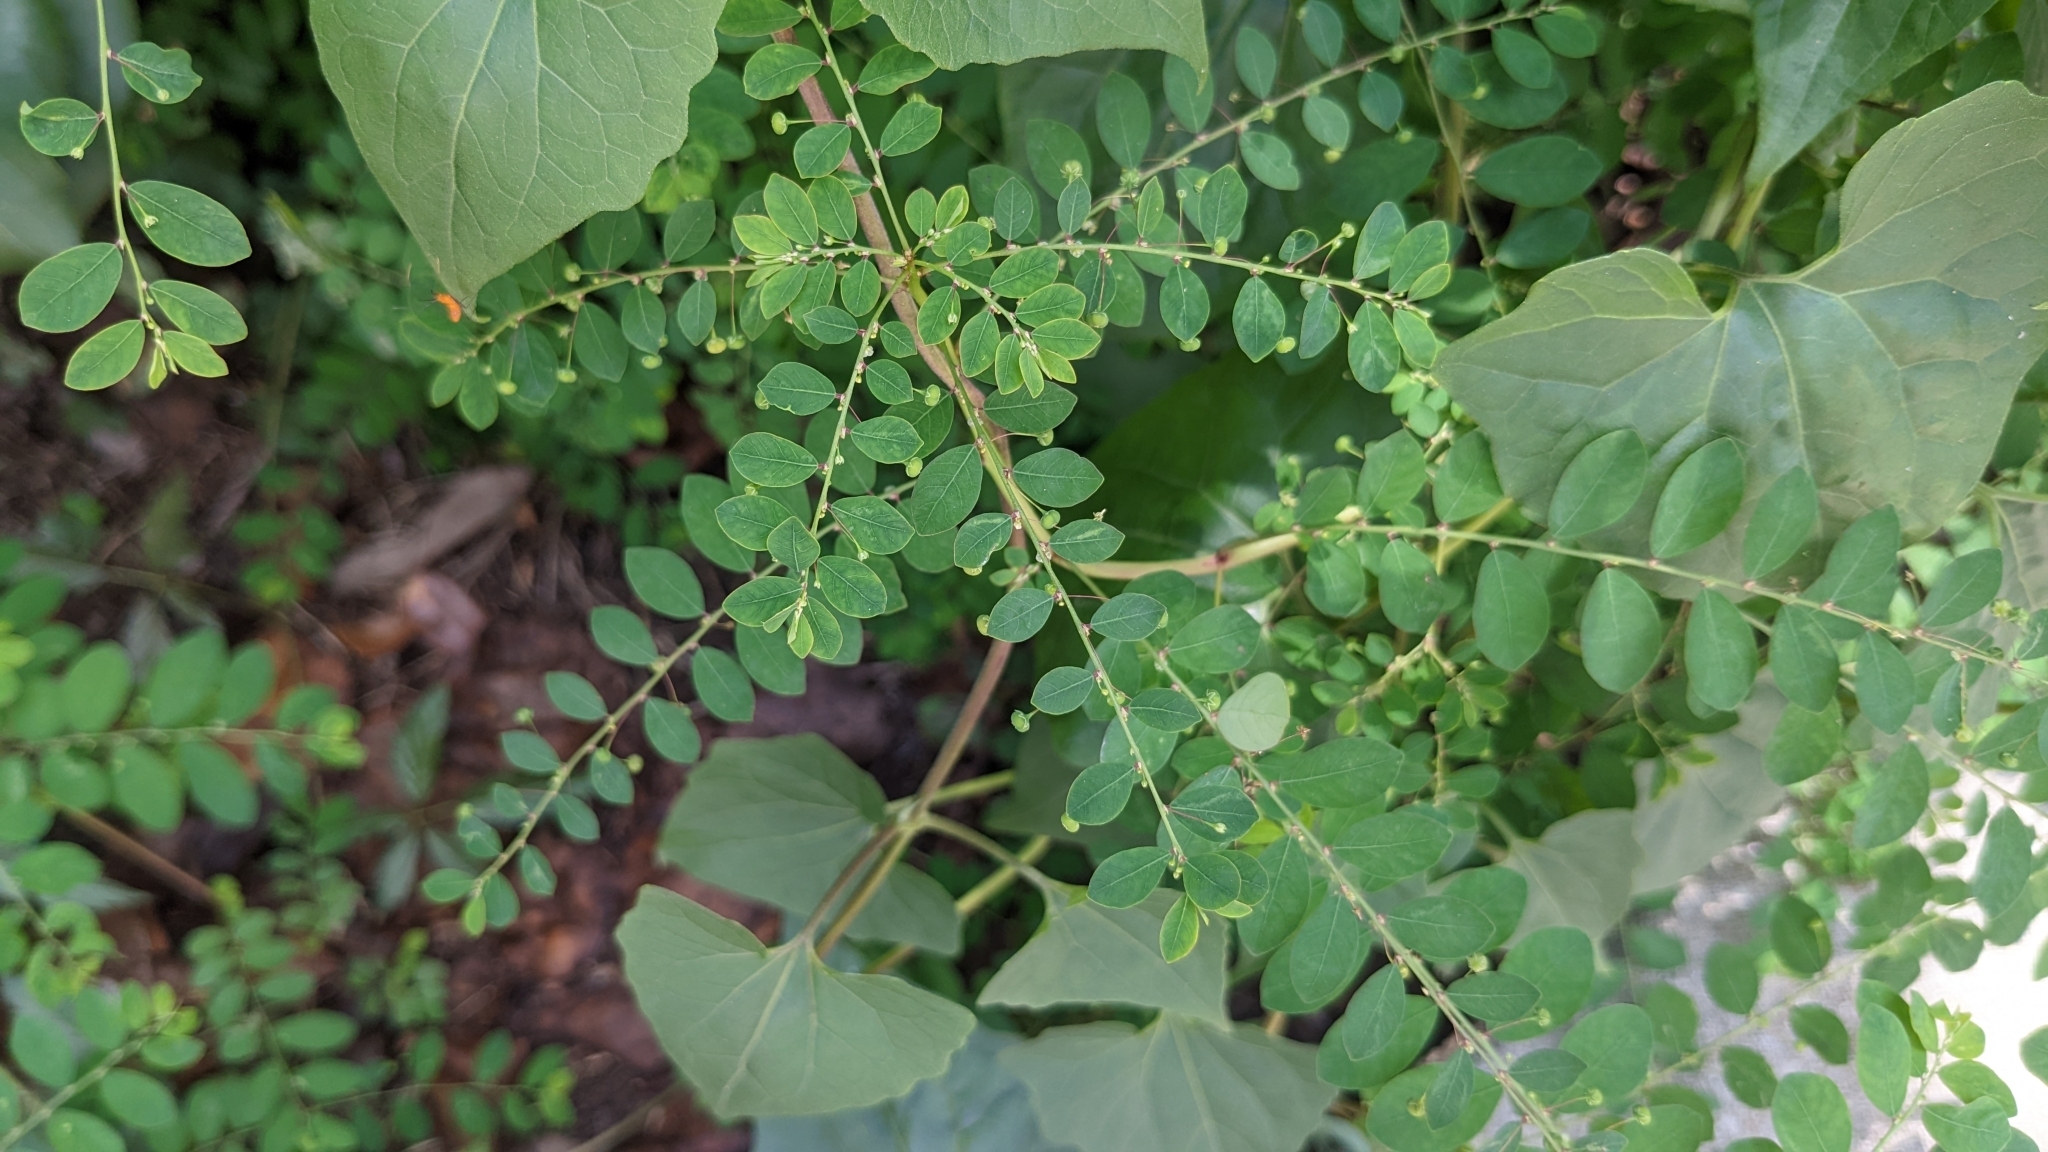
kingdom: Plantae
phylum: Tracheophyta
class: Magnoliopsida
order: Malpighiales
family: Phyllanthaceae
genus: Phyllanthus
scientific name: Phyllanthus tenellus
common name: Mascarene island leaf-flower
